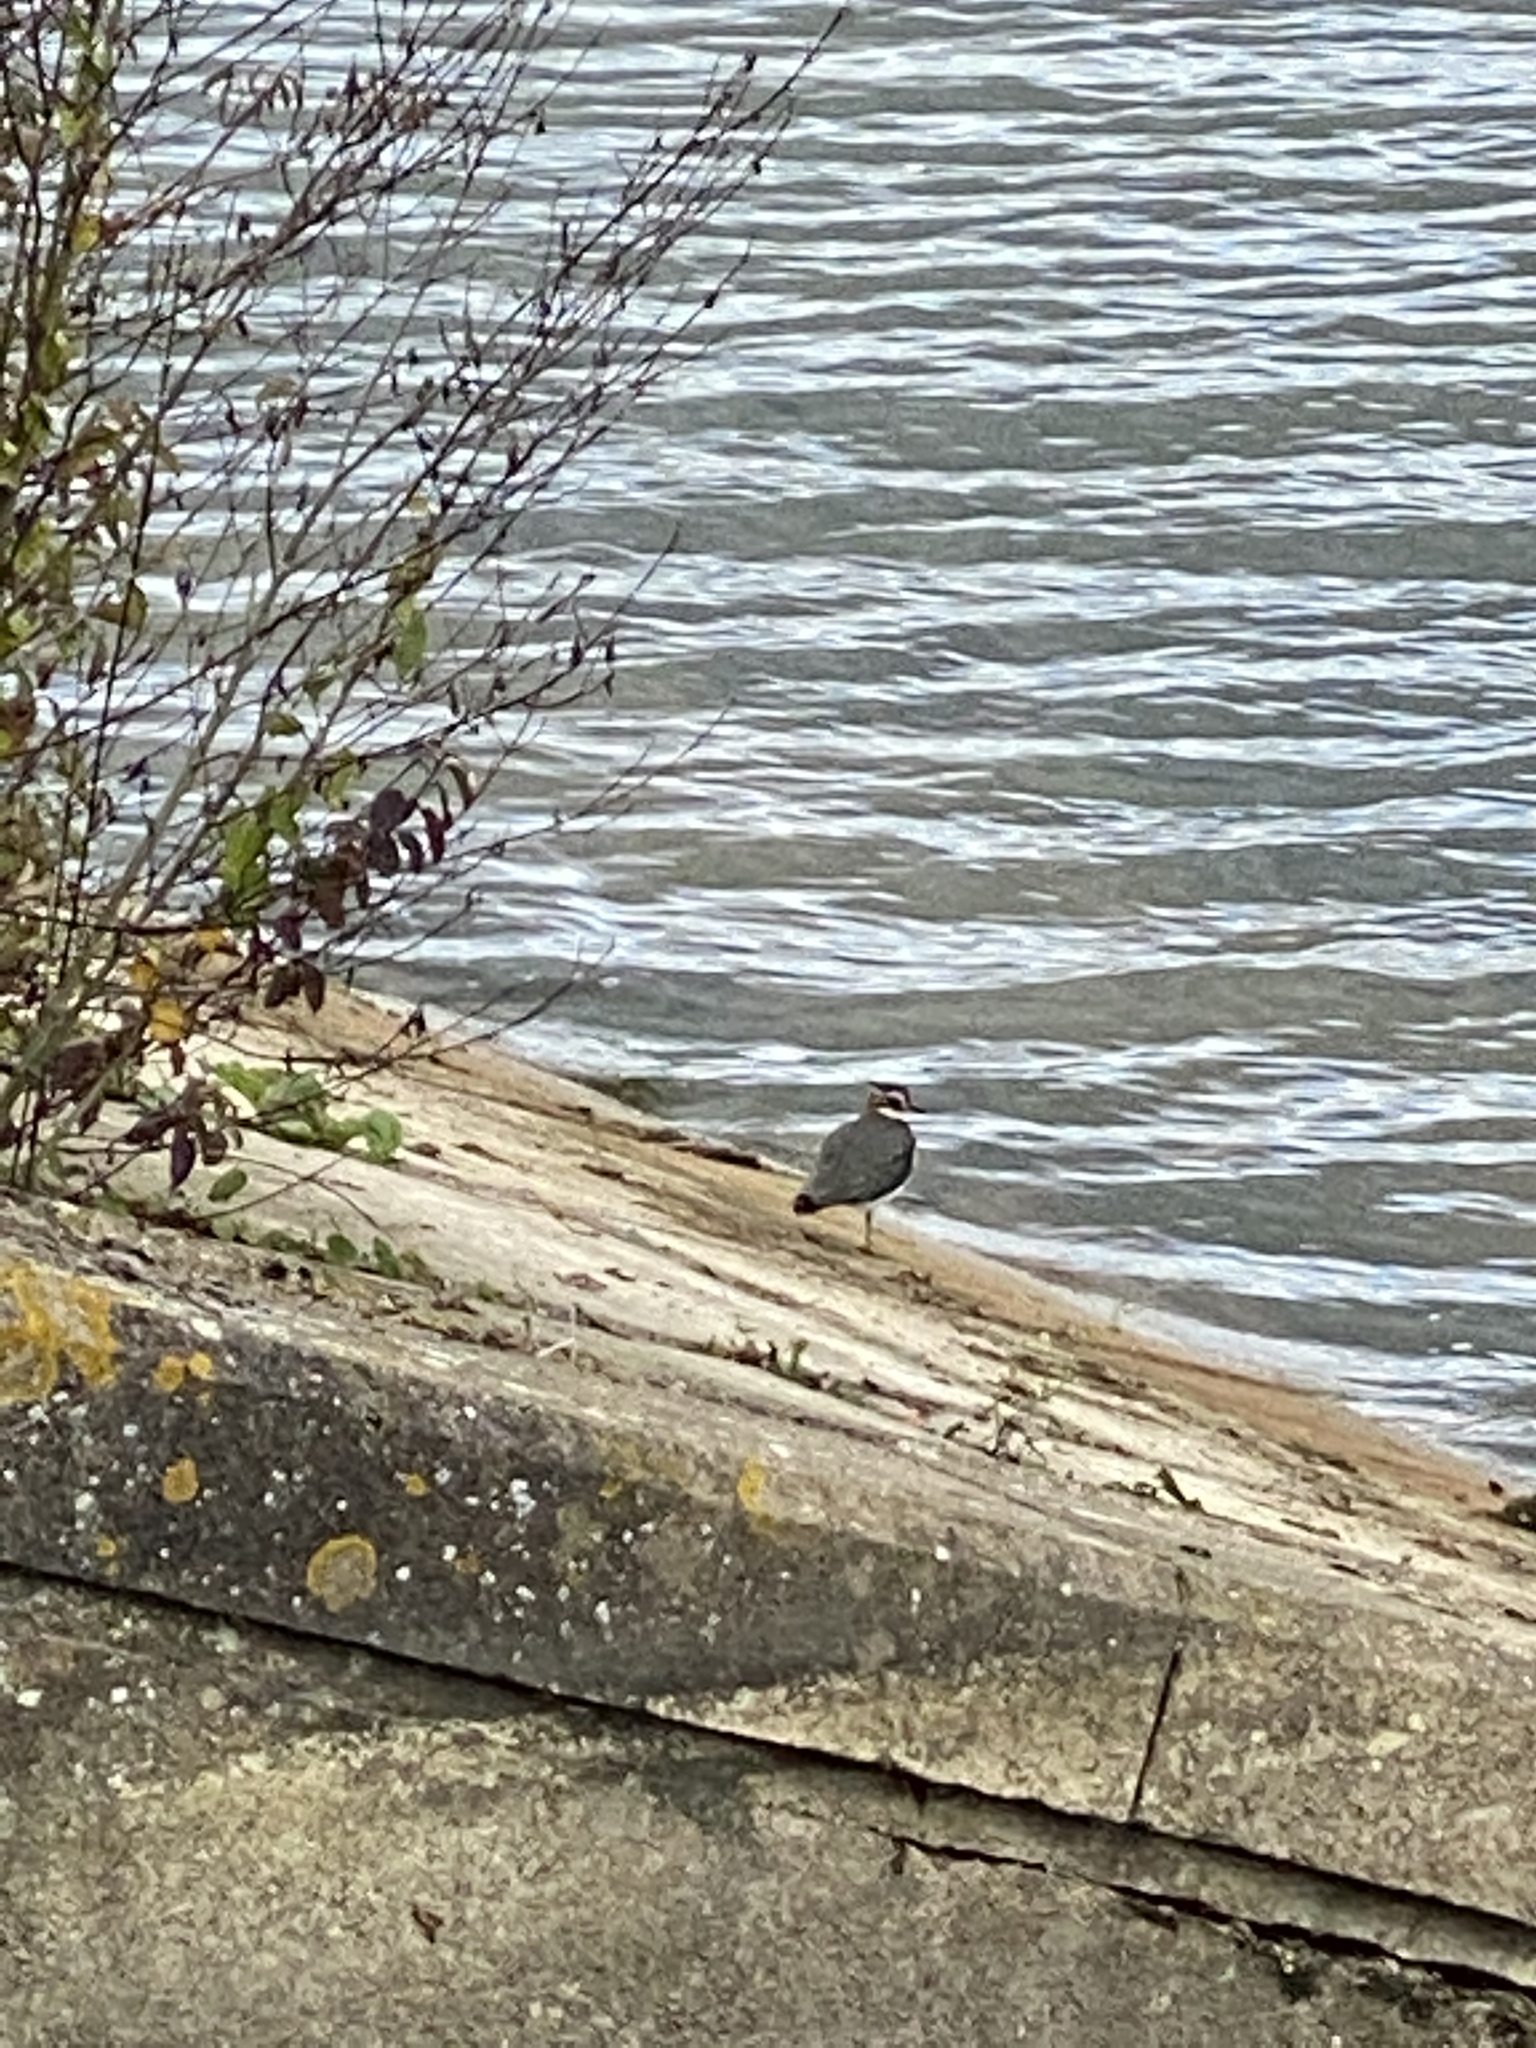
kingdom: Animalia
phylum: Chordata
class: Aves
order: Charadriiformes
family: Charadriidae
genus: Vanellus
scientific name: Vanellus vanellus
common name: Northern lapwing
